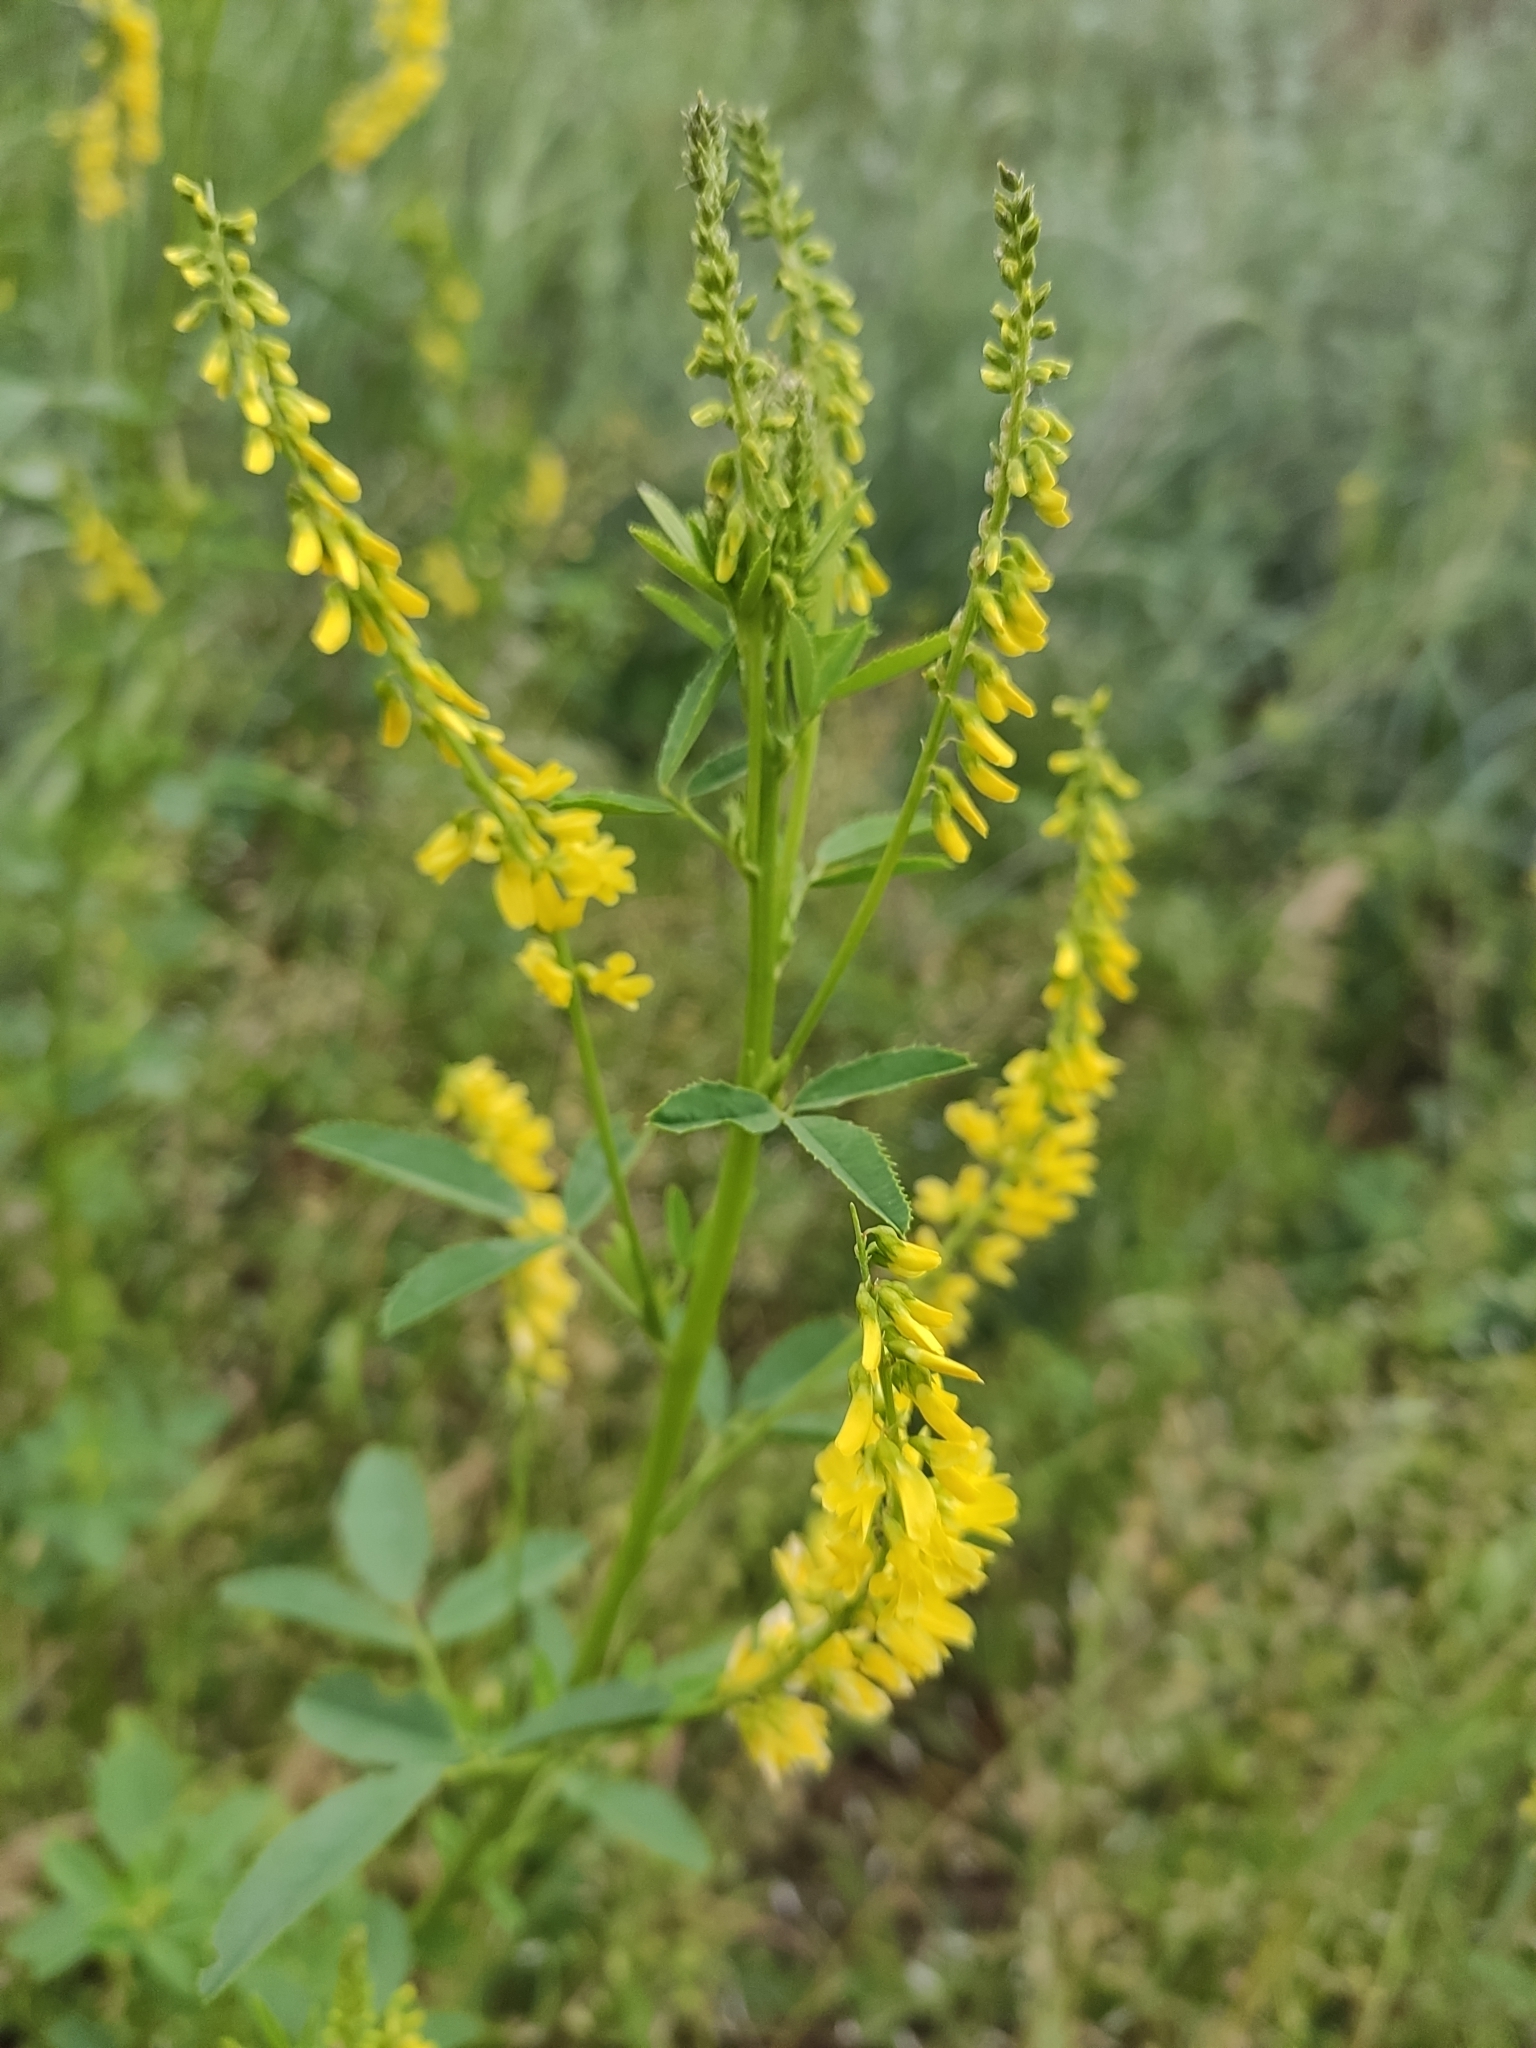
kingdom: Plantae
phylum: Tracheophyta
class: Magnoliopsida
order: Fabales
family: Fabaceae
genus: Melilotus
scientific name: Melilotus officinalis
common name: Sweetclover
